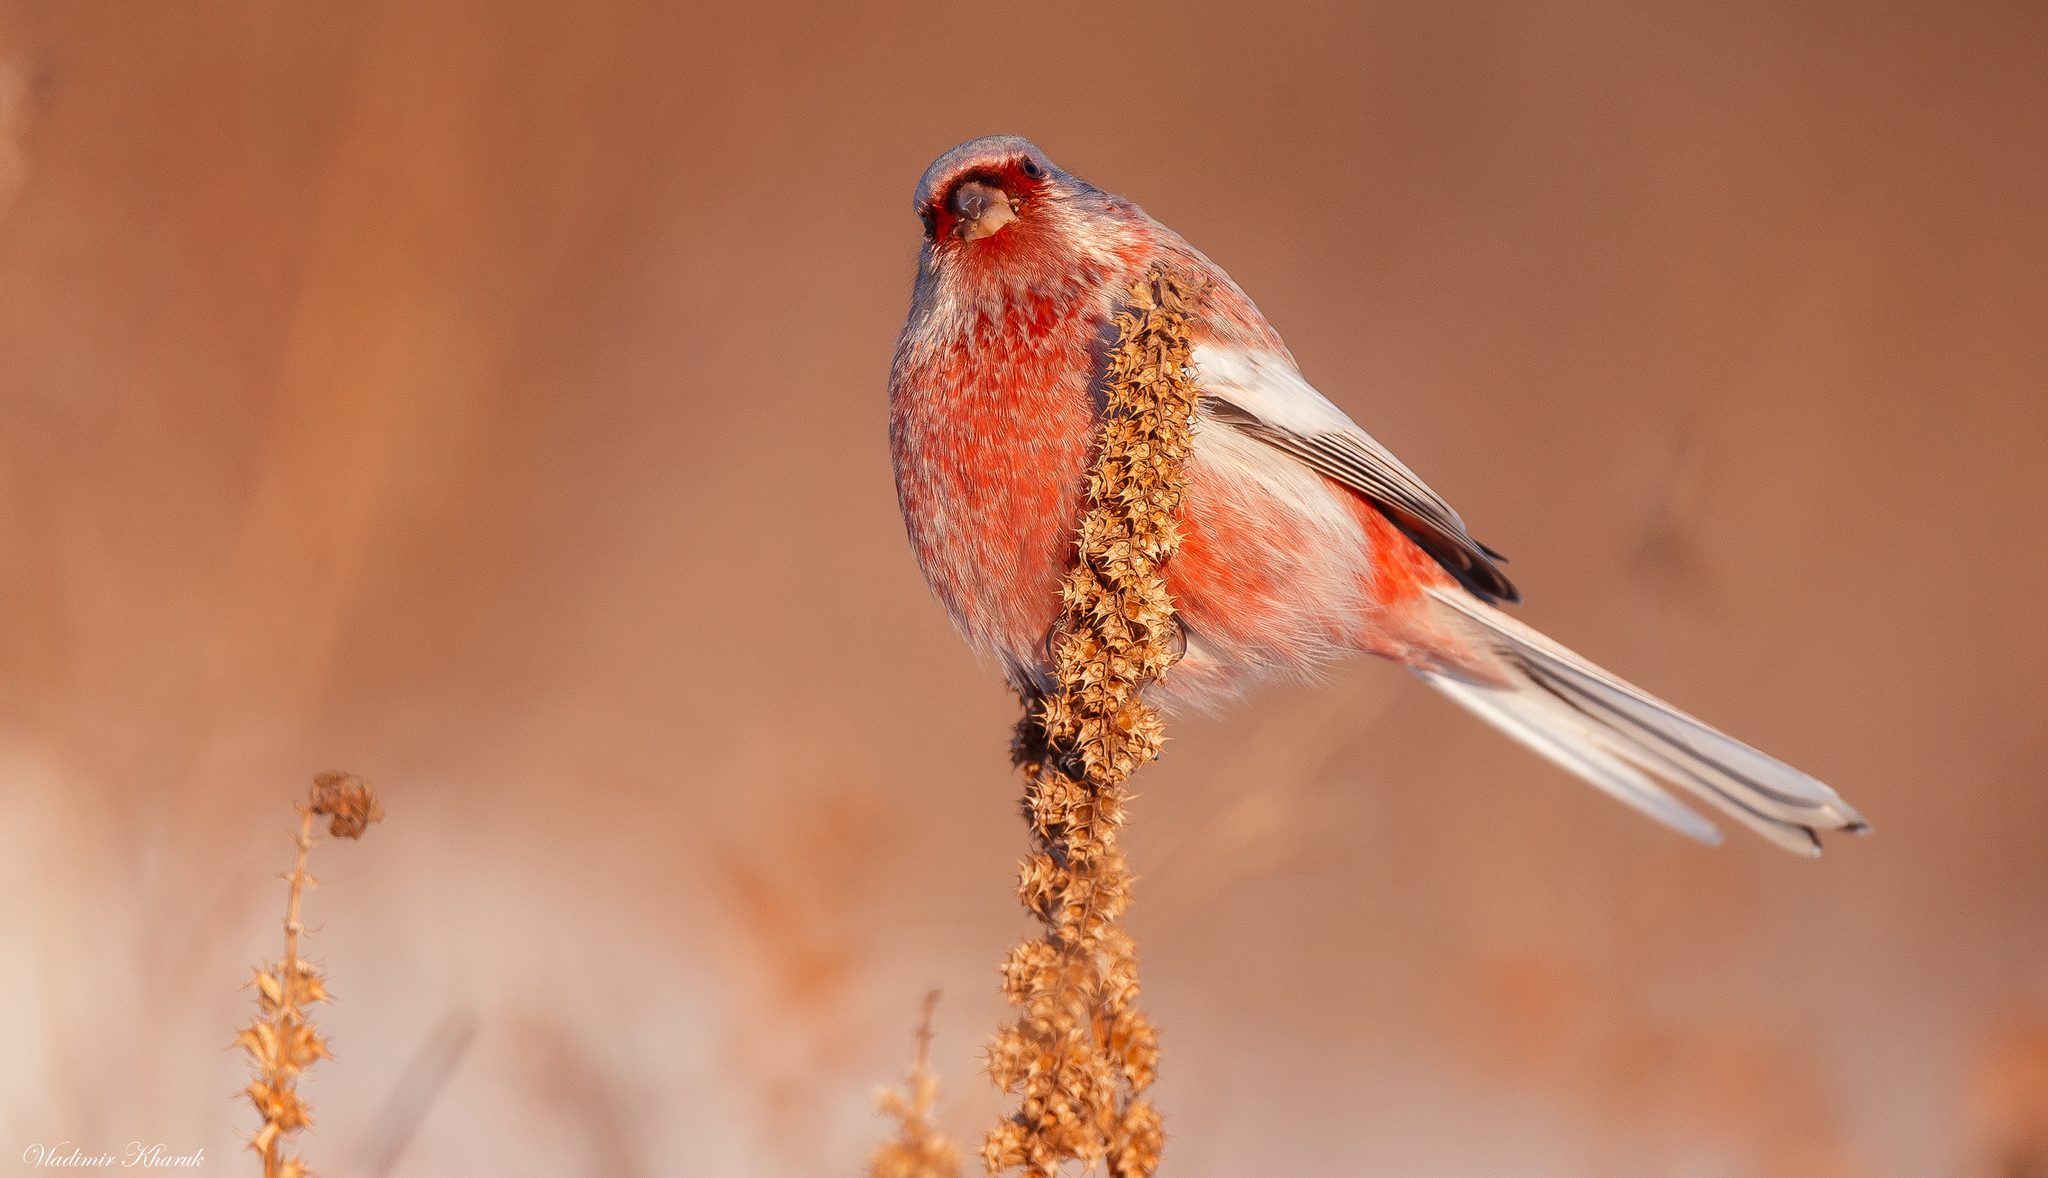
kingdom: Animalia
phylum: Chordata
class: Aves
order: Passeriformes
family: Fringillidae
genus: Carpodacus
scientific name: Carpodacus sibiricus
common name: Long-tailed rosefinch
